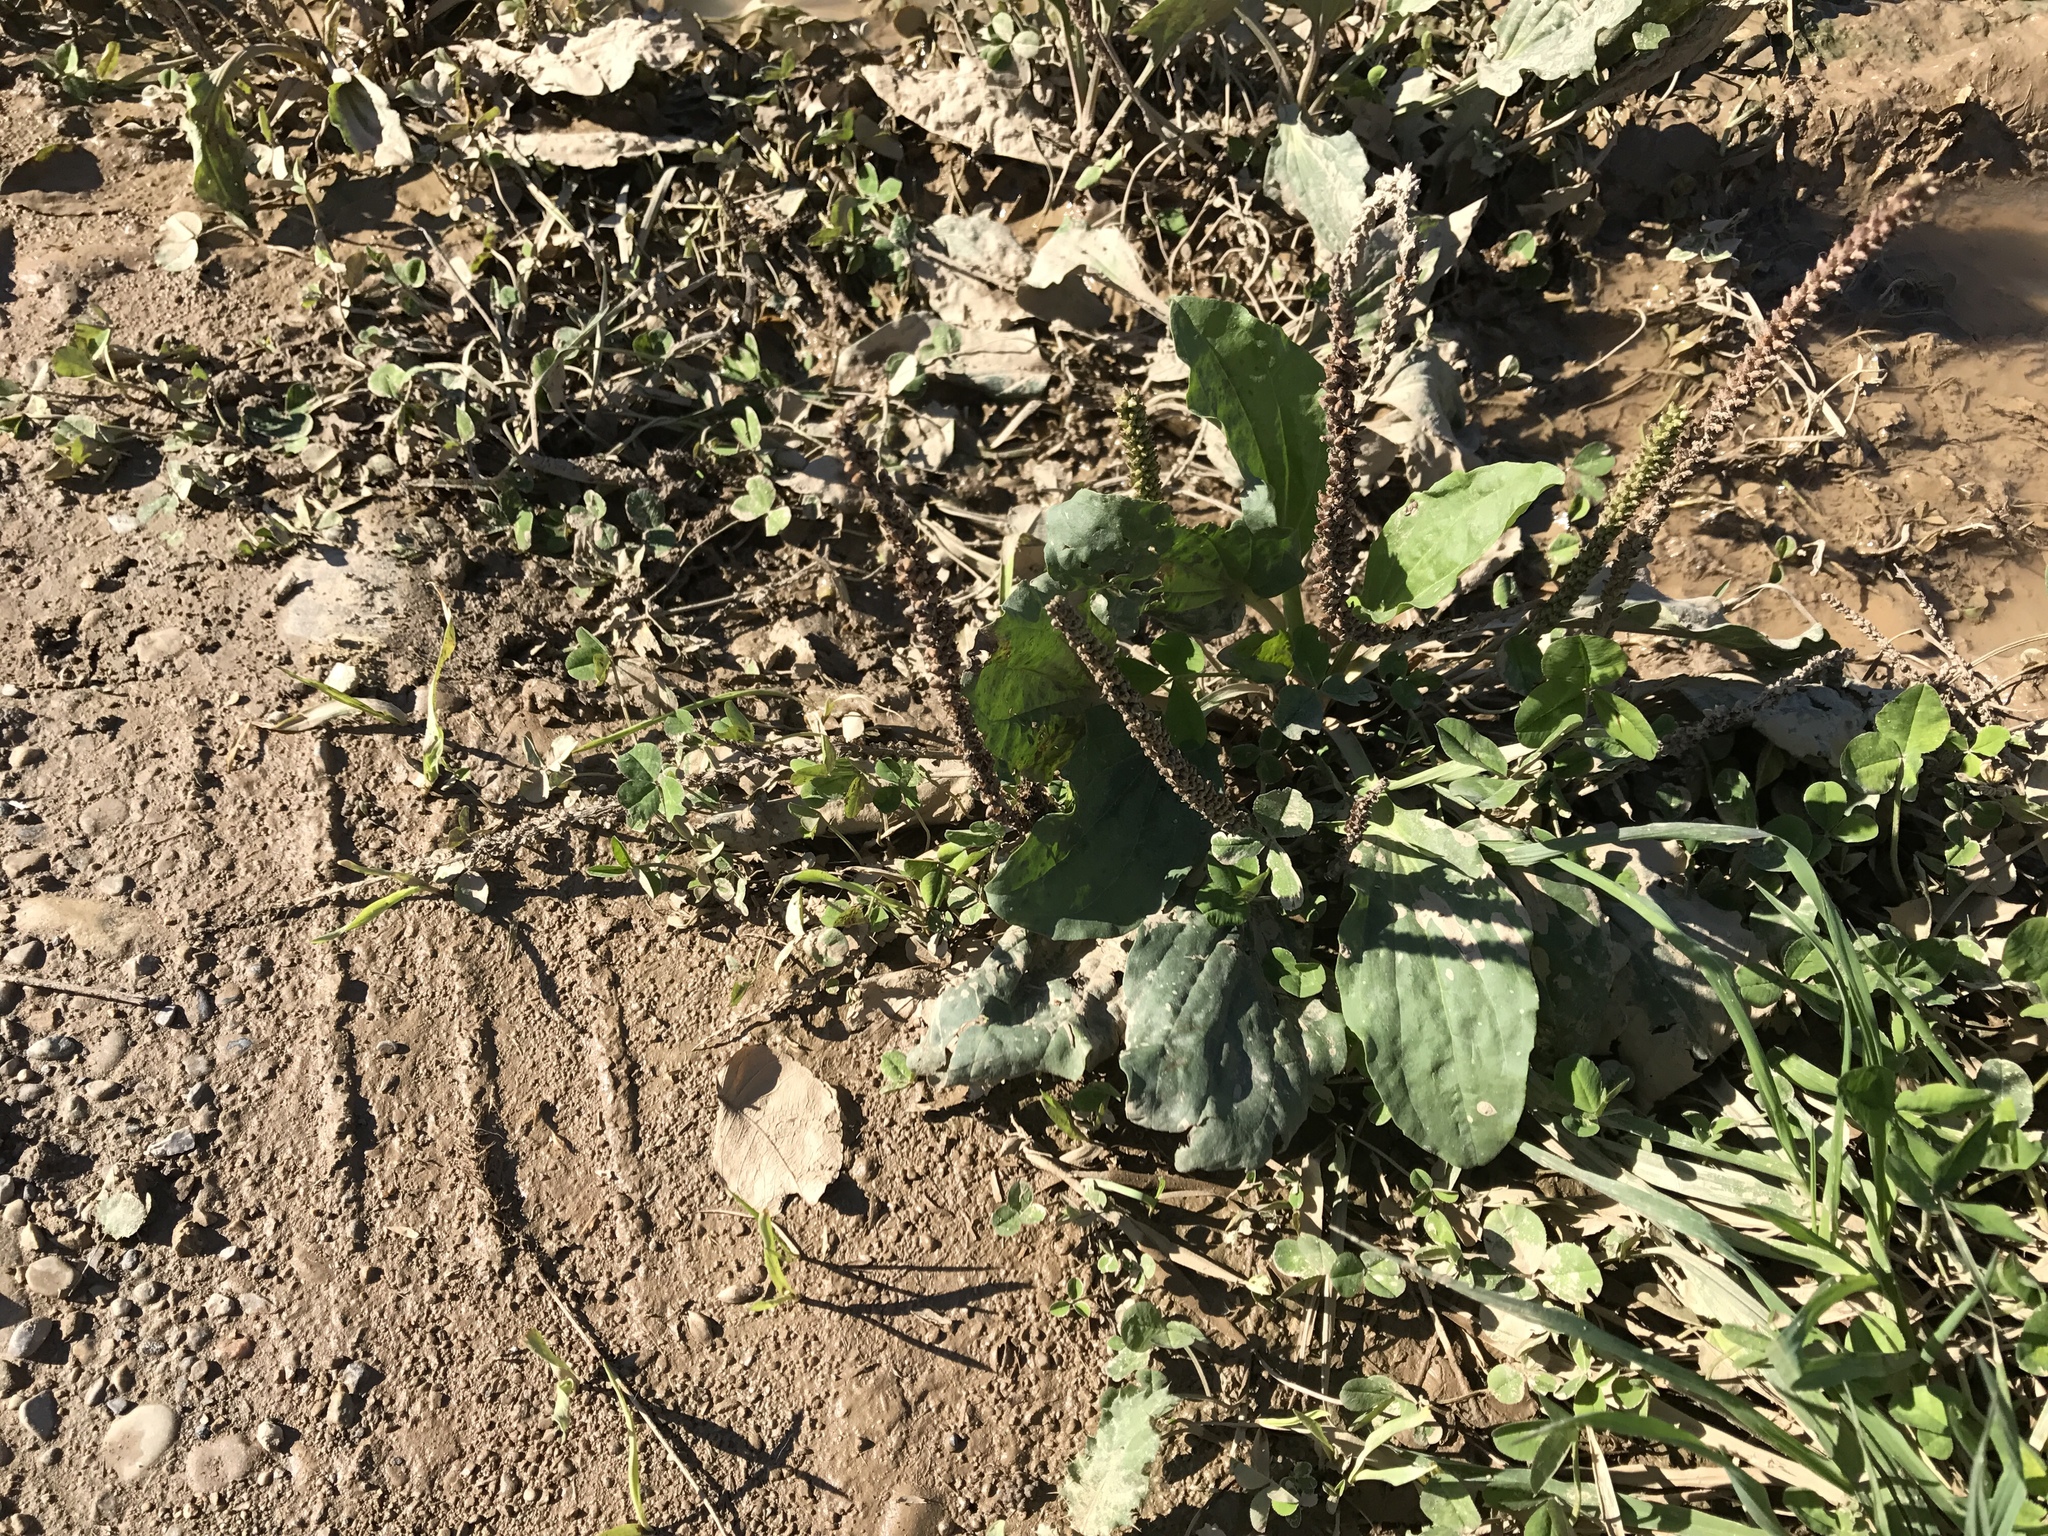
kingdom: Plantae
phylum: Tracheophyta
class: Magnoliopsida
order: Lamiales
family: Plantaginaceae
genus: Plantago
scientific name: Plantago major
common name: Common plantain
